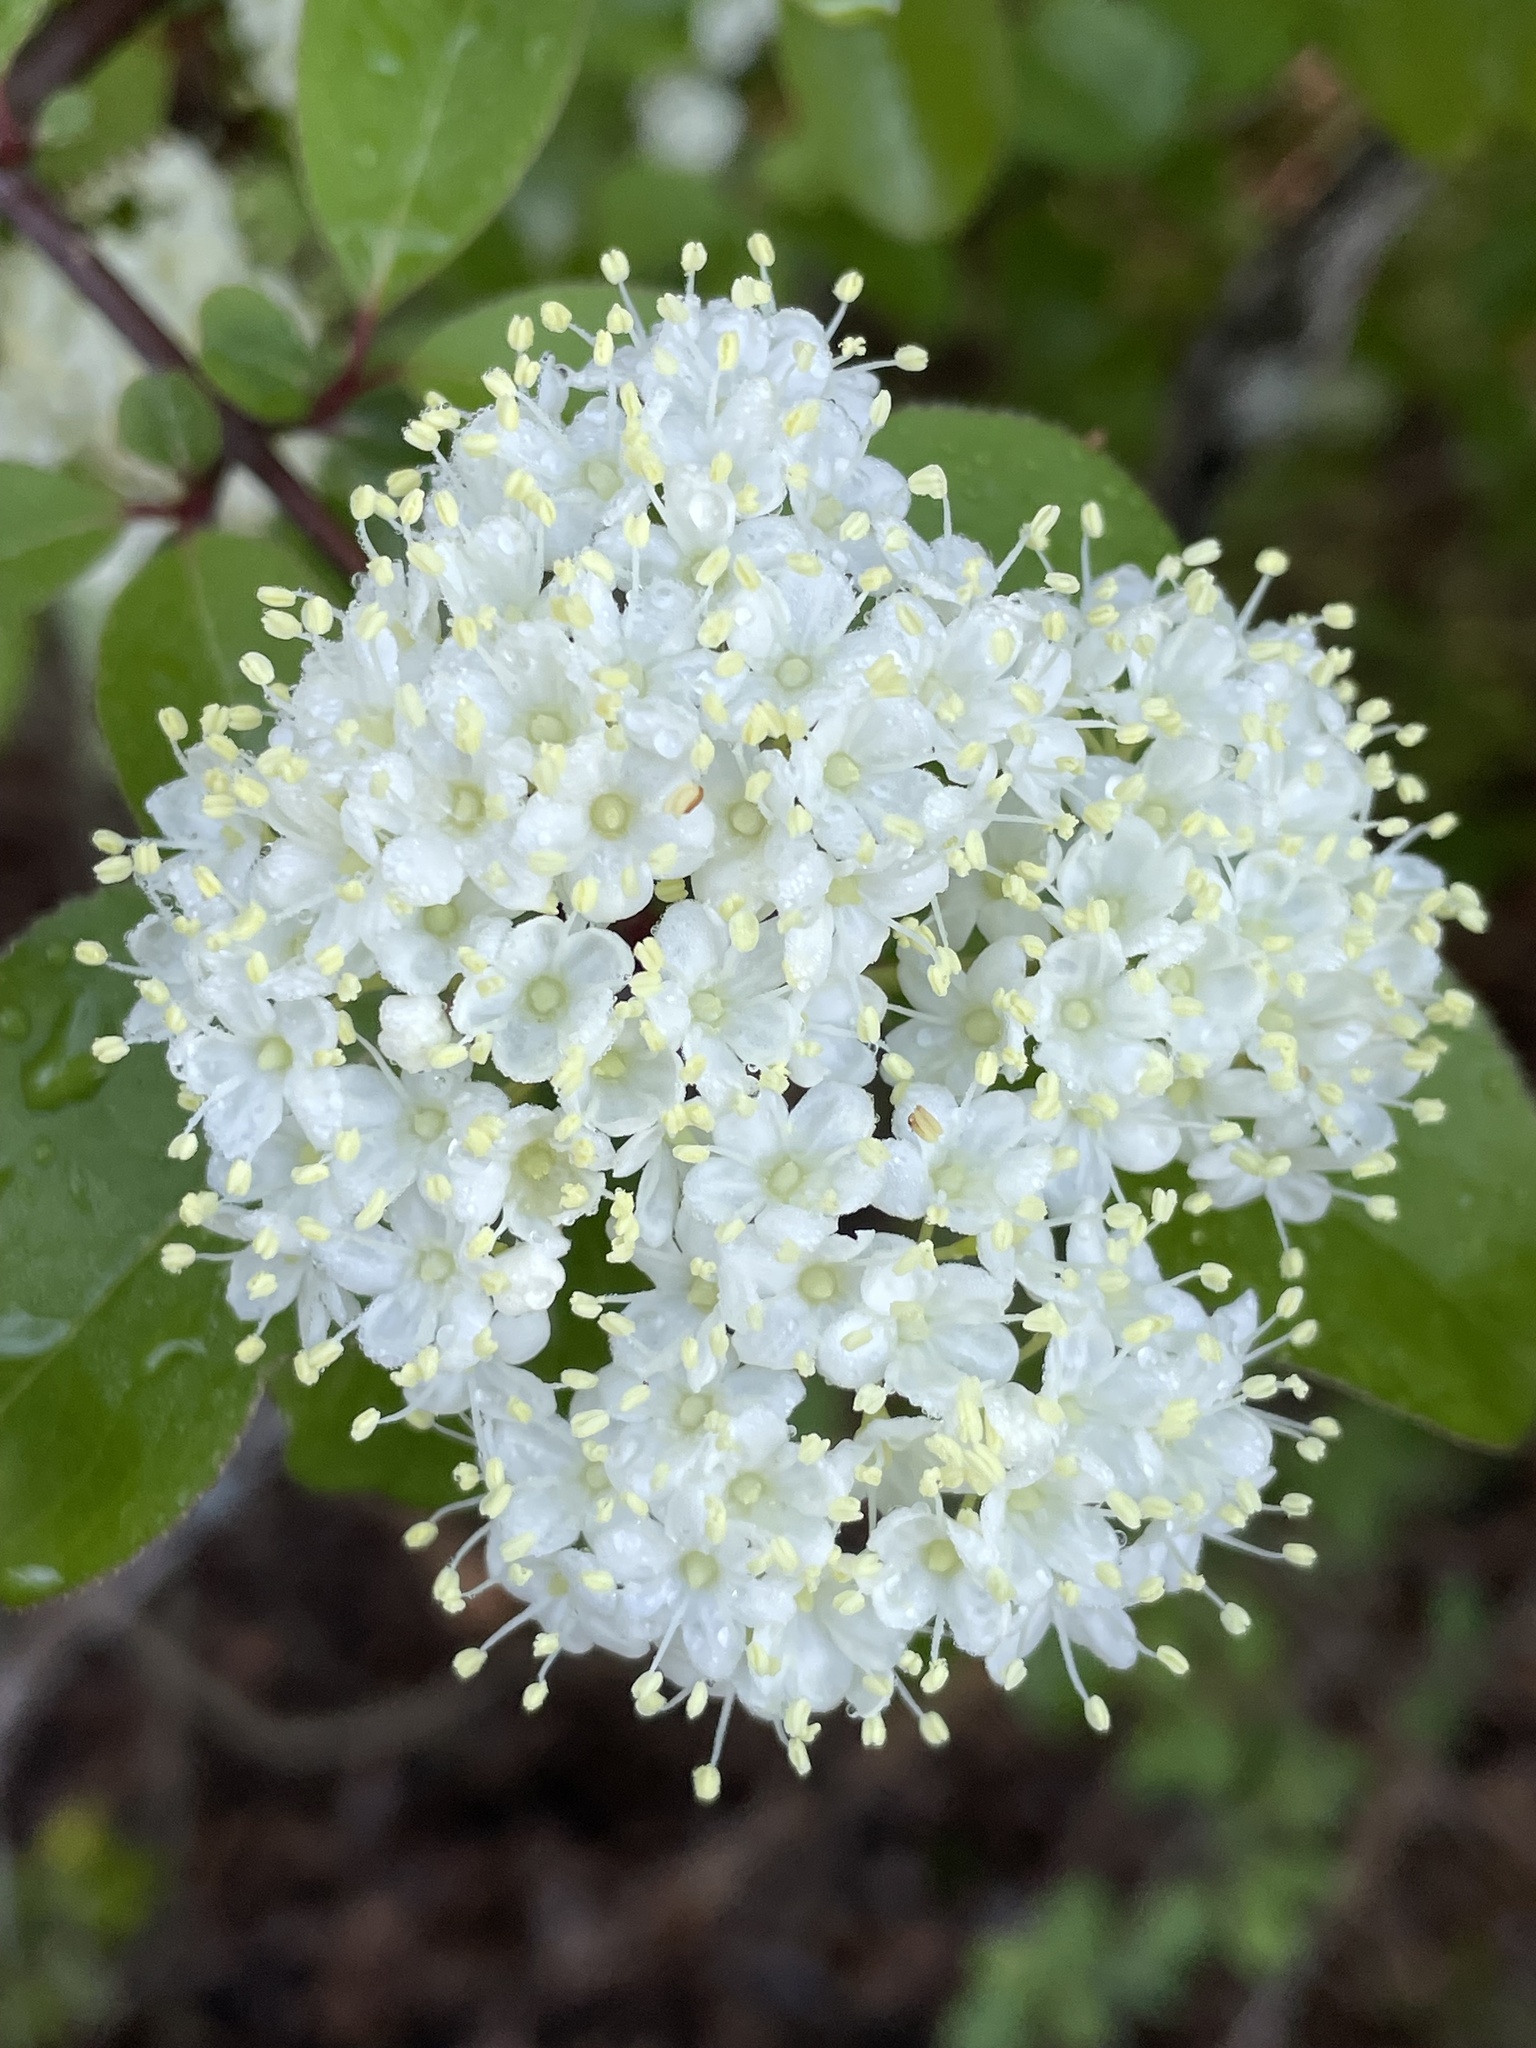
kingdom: Plantae
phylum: Tracheophyta
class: Magnoliopsida
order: Dipsacales
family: Viburnaceae
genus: Viburnum
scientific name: Viburnum rufidulum
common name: Blue haw
